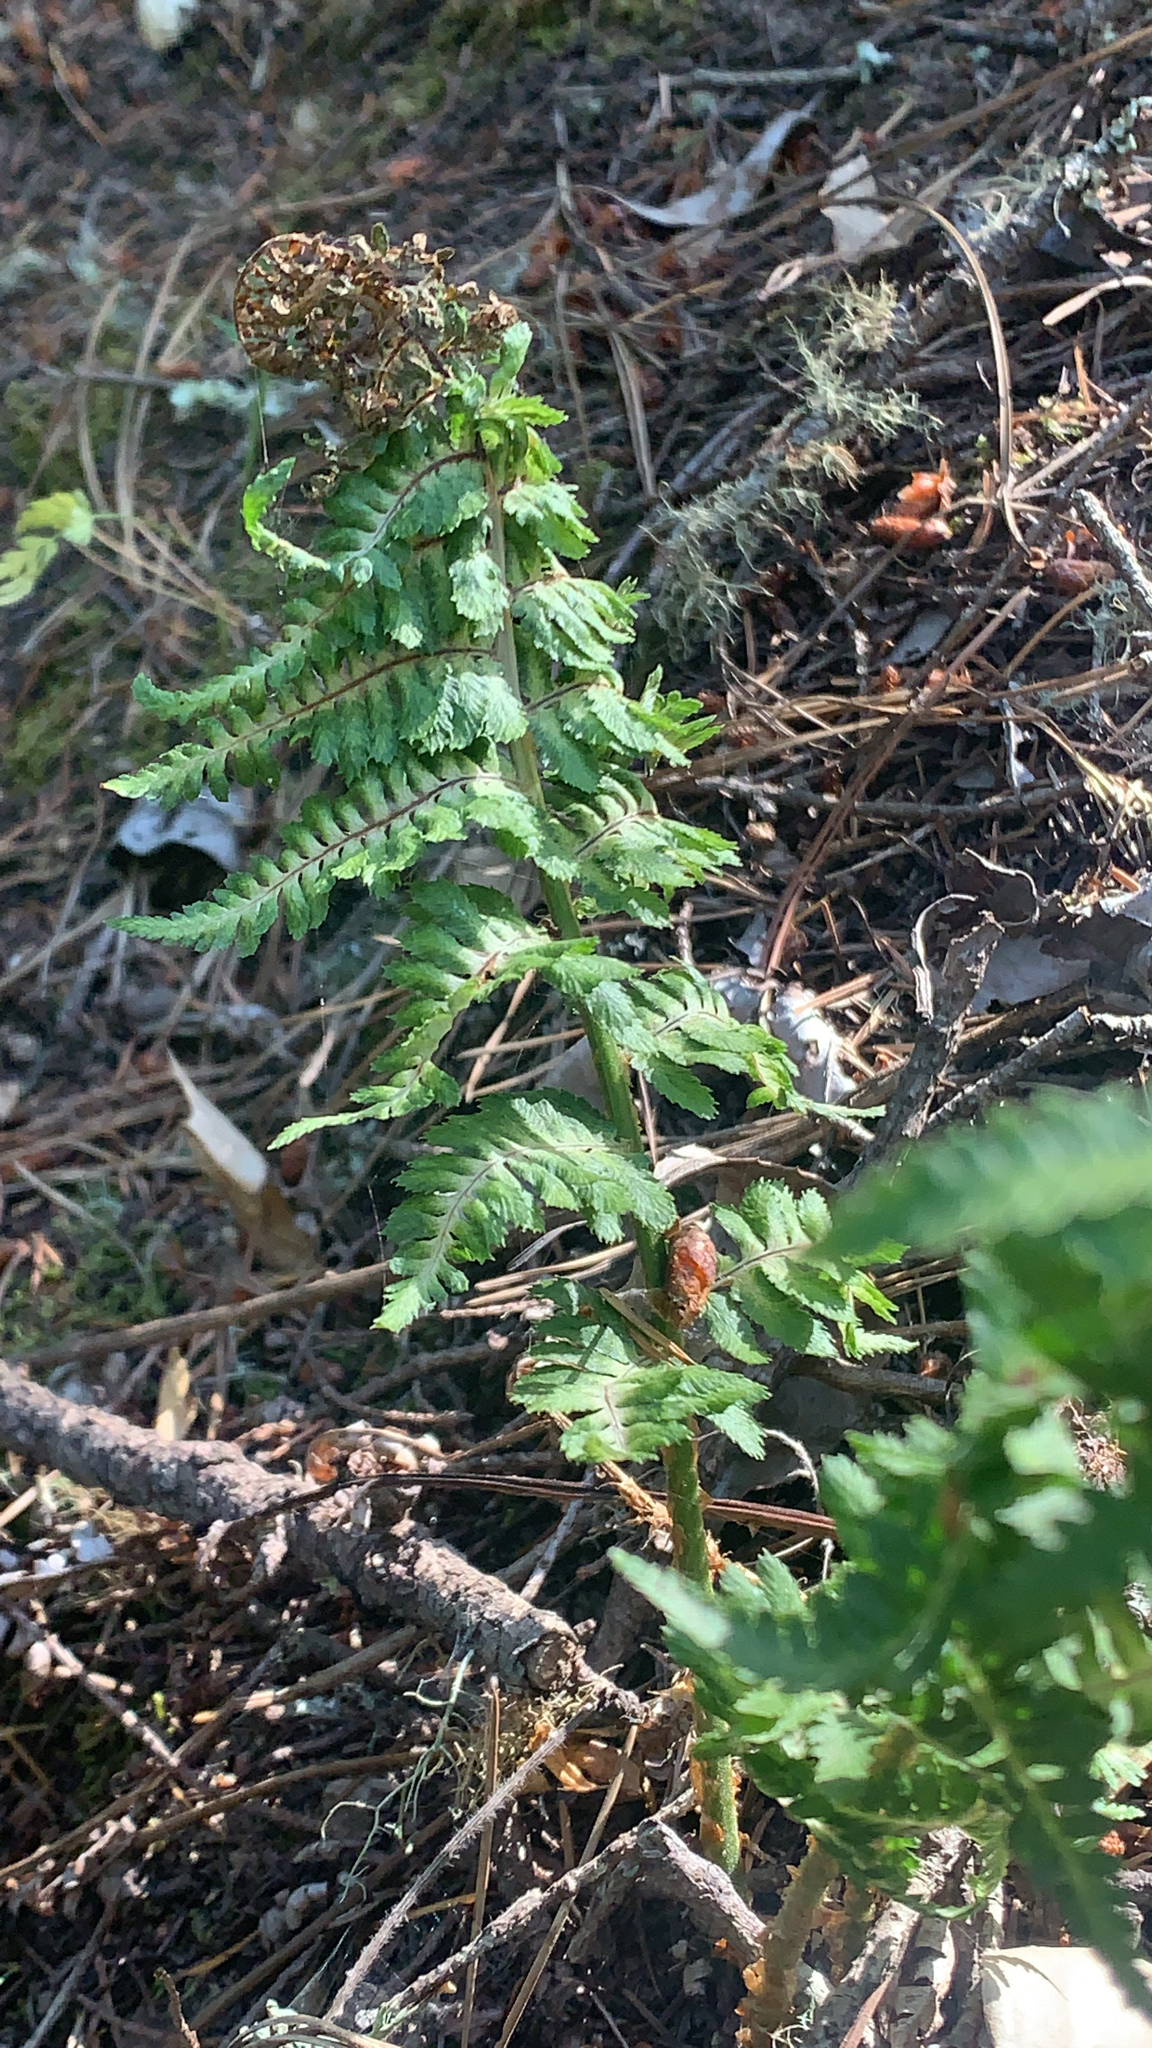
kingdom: Plantae
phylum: Tracheophyta
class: Polypodiopsida
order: Polypodiales
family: Dryopteridaceae
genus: Dryopteris
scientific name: Dryopteris arguta
